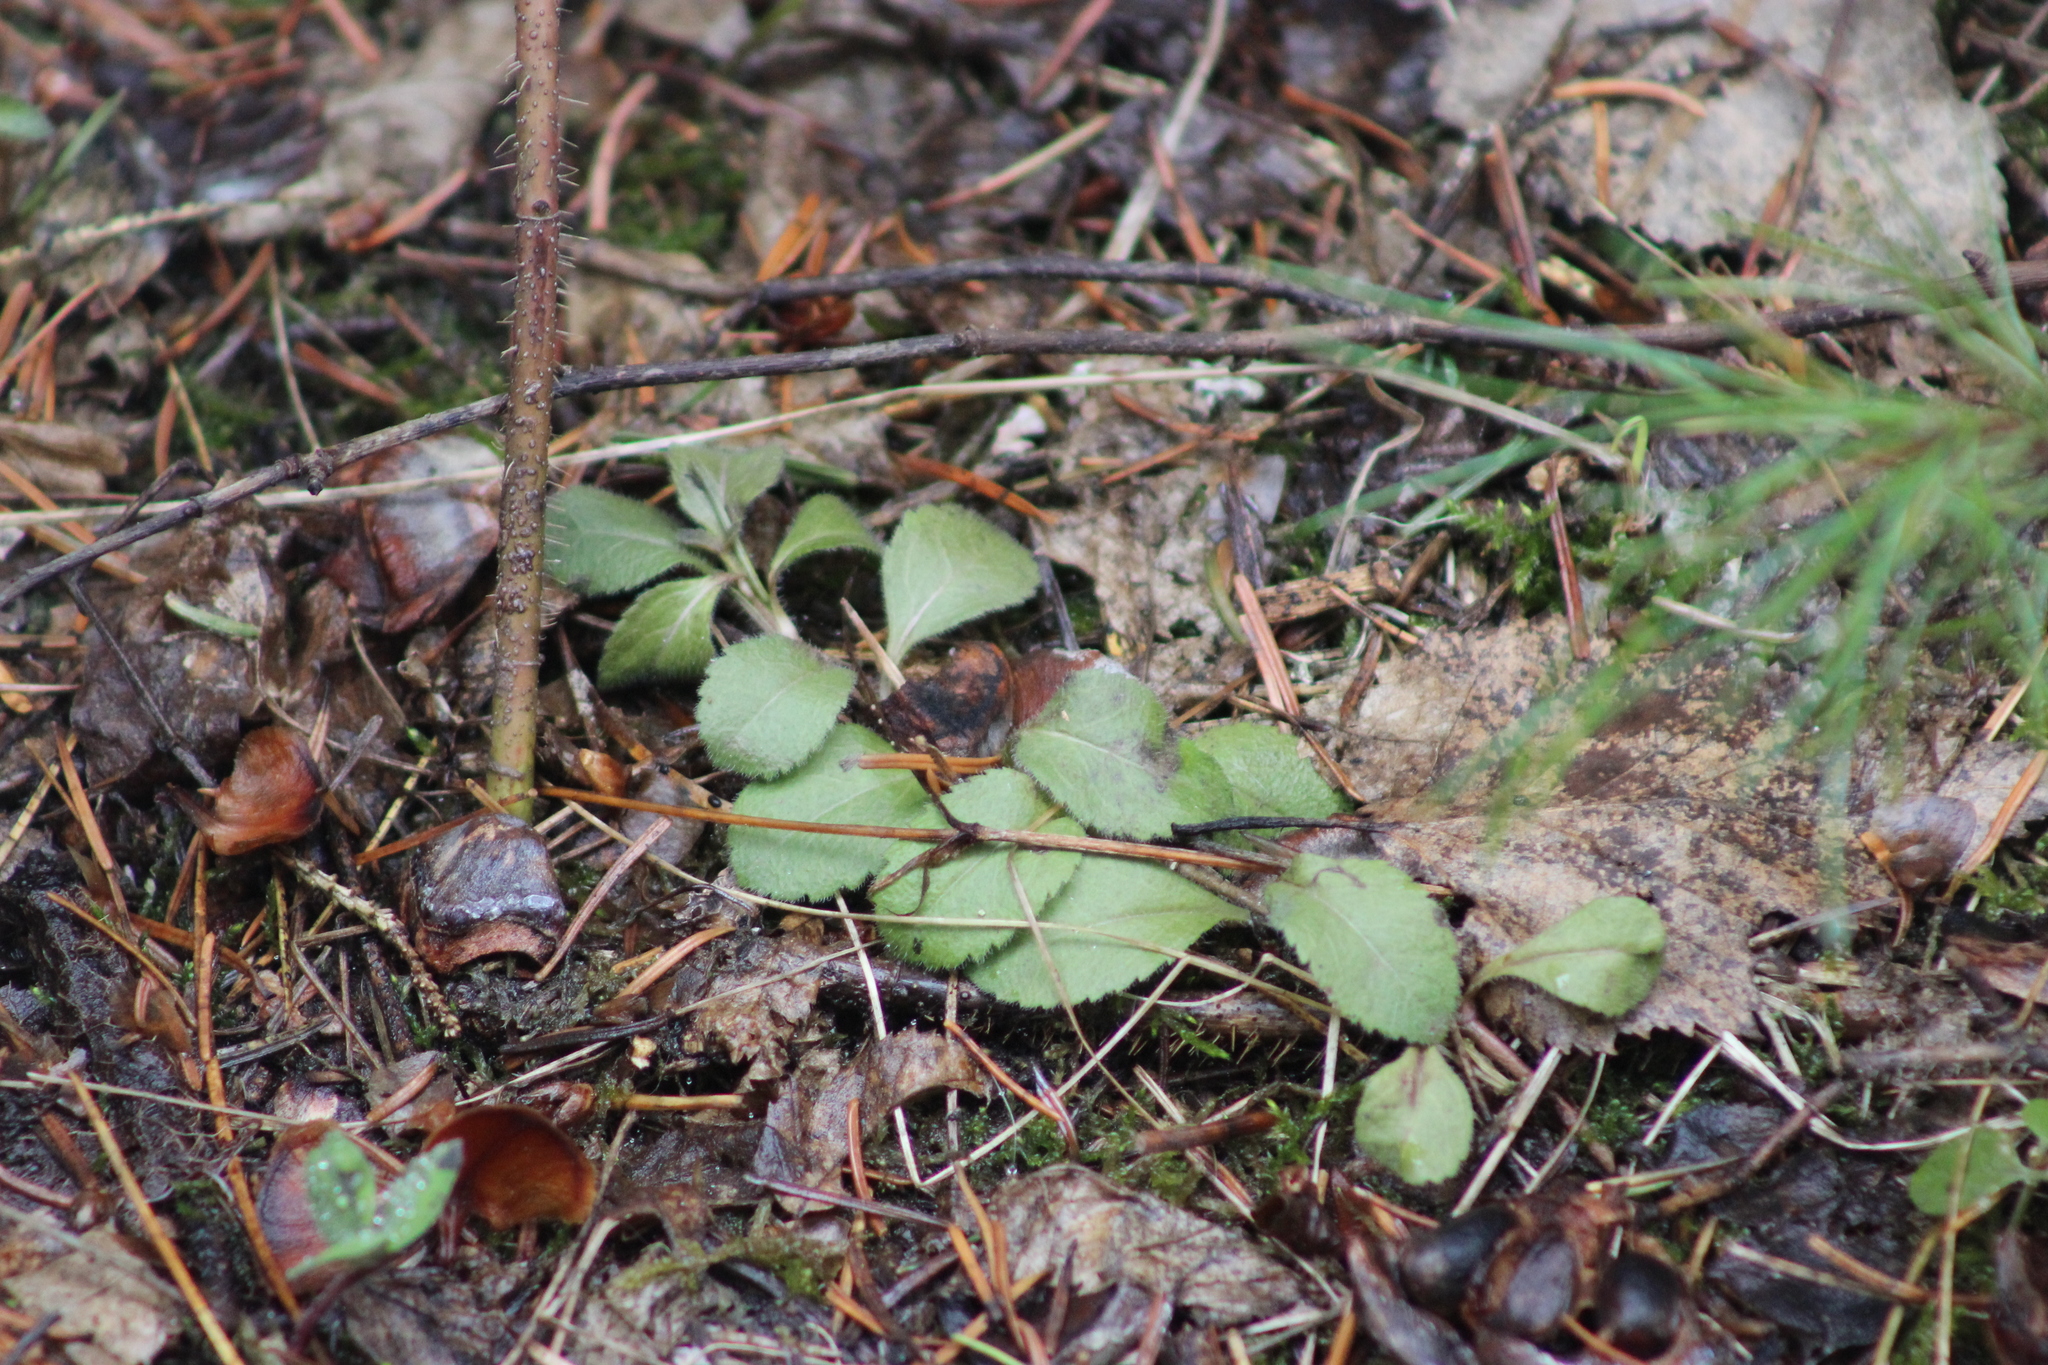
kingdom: Plantae
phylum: Tracheophyta
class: Magnoliopsida
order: Lamiales
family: Plantaginaceae
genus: Veronica
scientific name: Veronica officinalis
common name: Common speedwell
